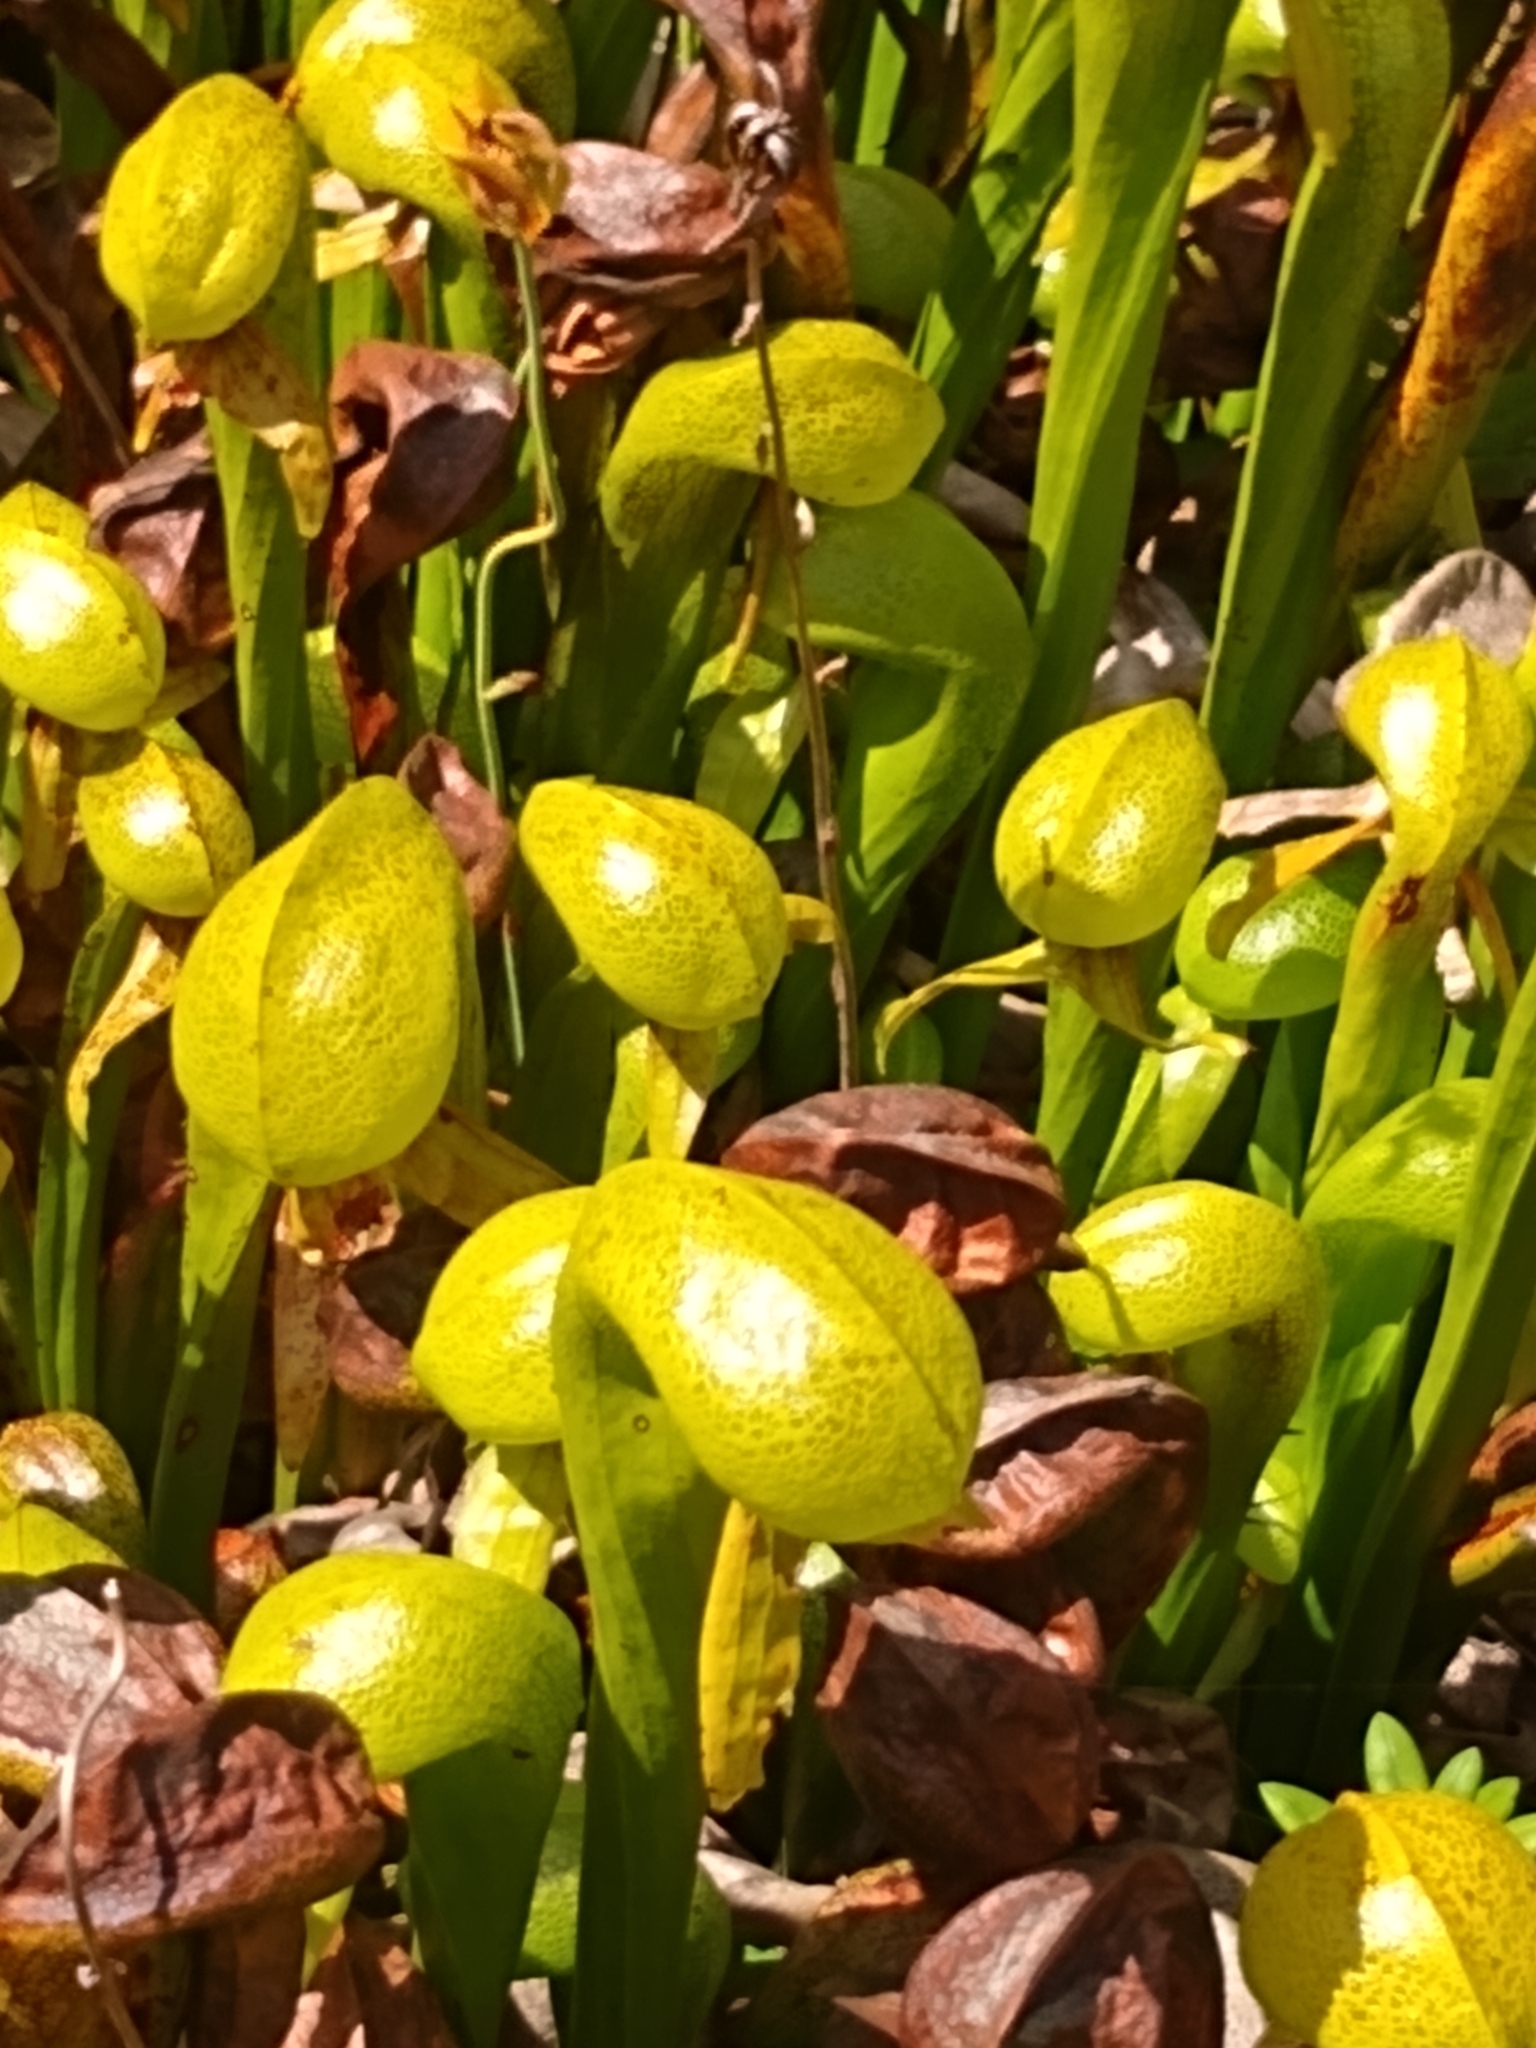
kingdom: Plantae
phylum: Tracheophyta
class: Magnoliopsida
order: Ericales
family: Sarraceniaceae
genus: Darlingtonia
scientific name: Darlingtonia californica
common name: California pitcher plant
